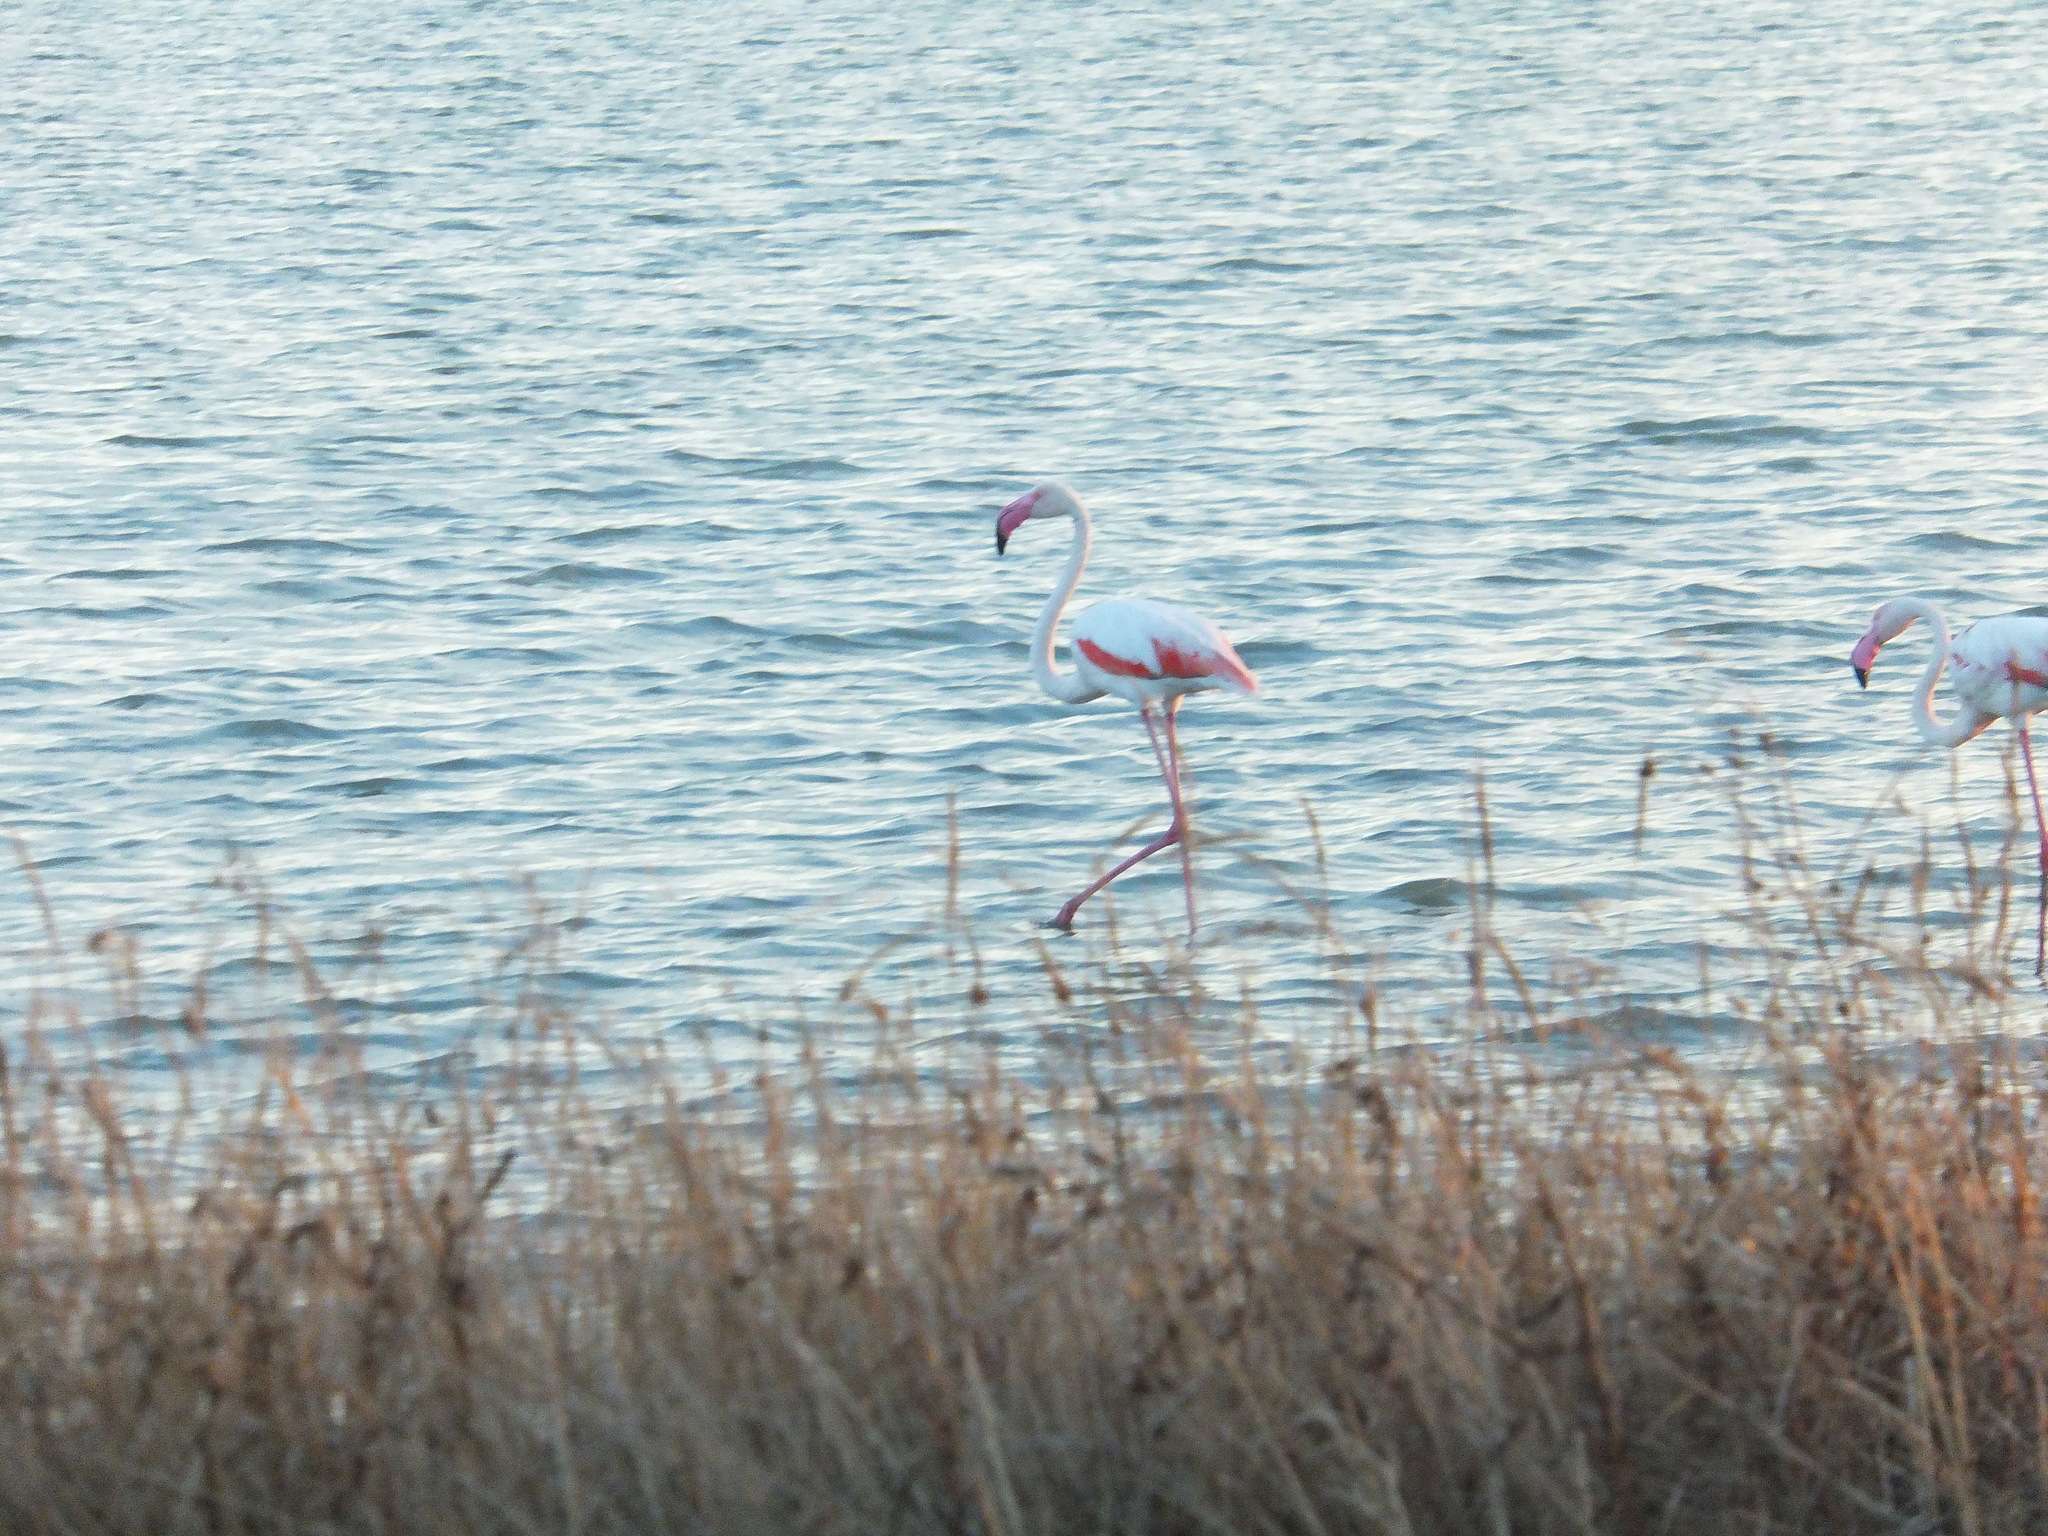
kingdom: Animalia
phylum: Chordata
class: Aves
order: Phoenicopteriformes
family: Phoenicopteridae
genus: Phoenicopterus
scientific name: Phoenicopterus roseus
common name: Greater flamingo
